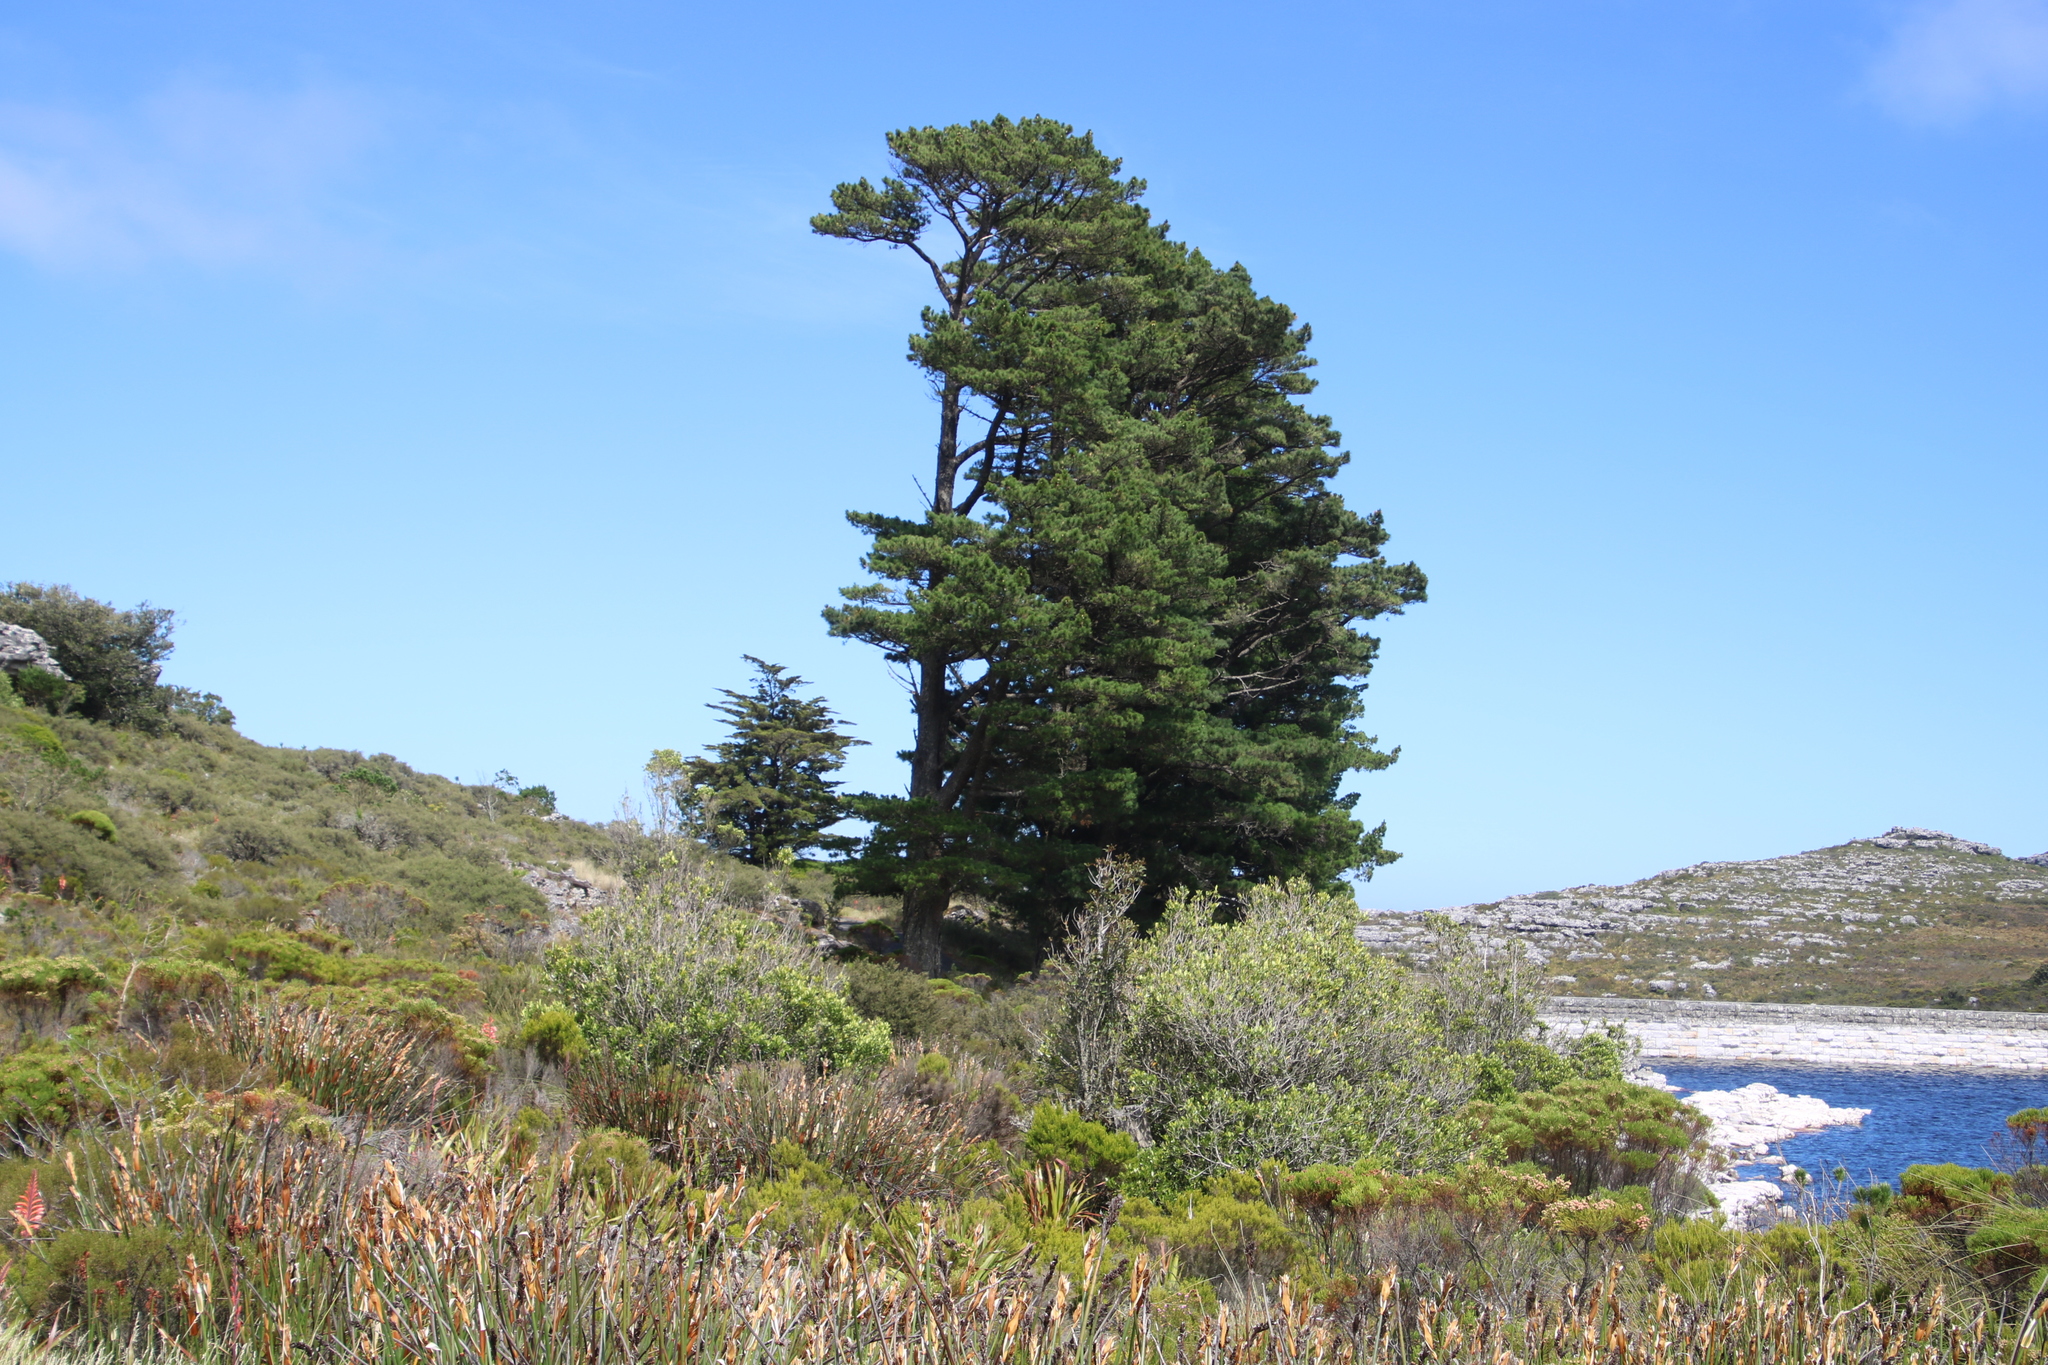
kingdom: Plantae
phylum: Tracheophyta
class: Pinopsida
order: Pinales
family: Pinaceae
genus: Pinus
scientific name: Pinus radiata
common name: Monterey pine
